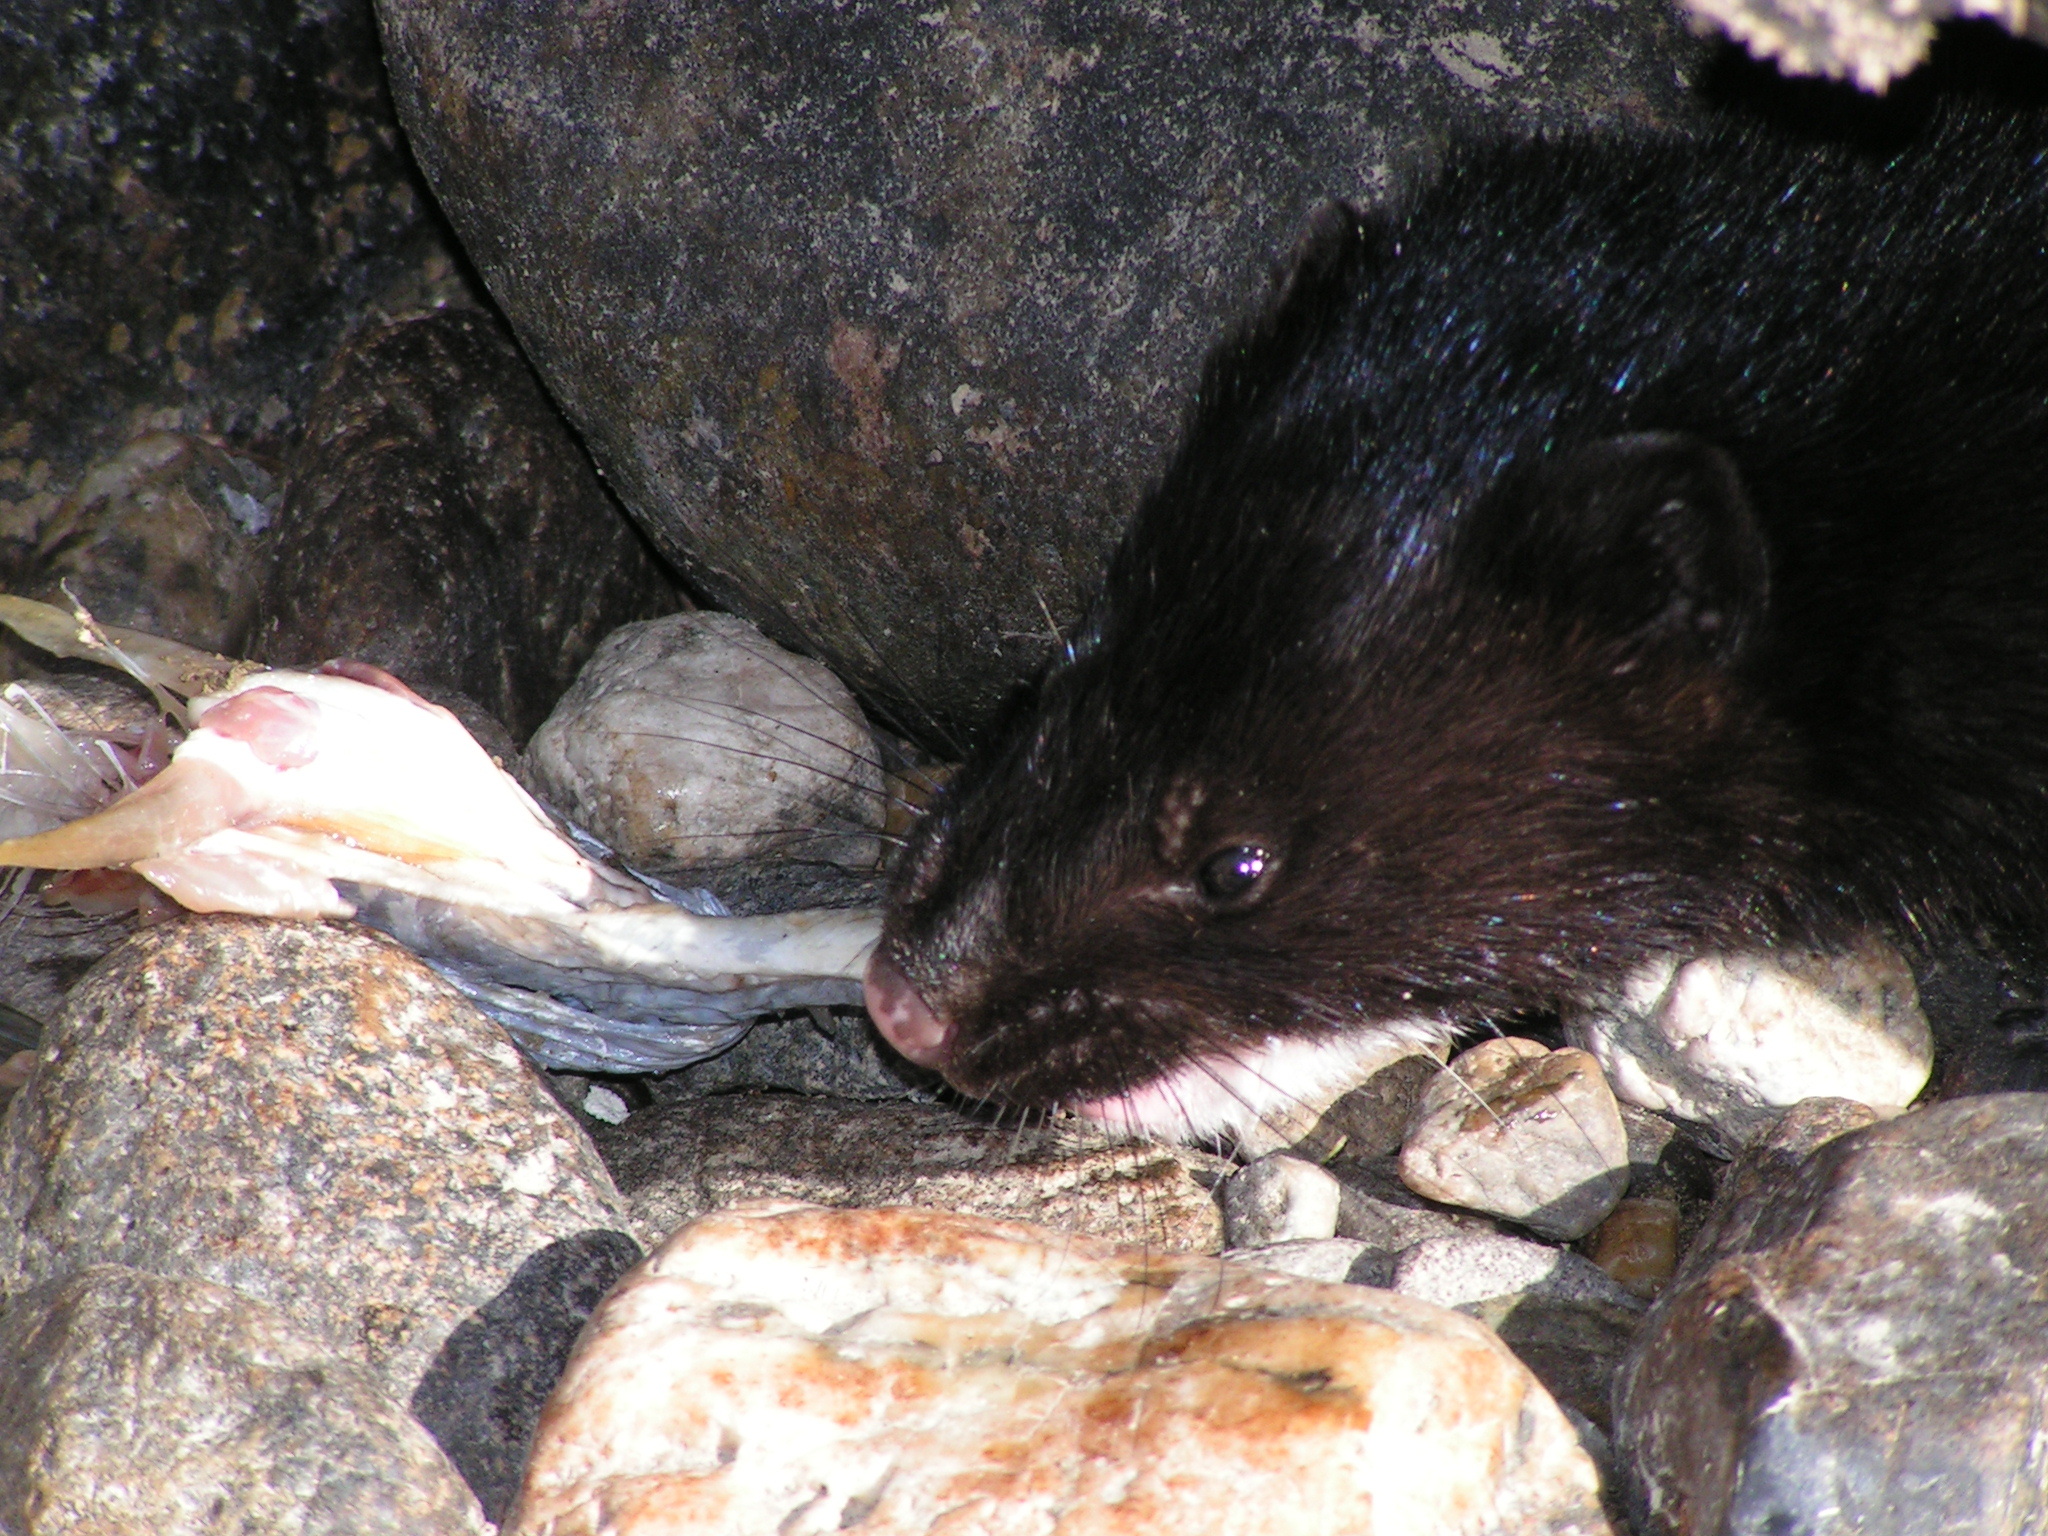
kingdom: Animalia
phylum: Chordata
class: Mammalia
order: Carnivora
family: Mustelidae
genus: Mustela
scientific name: Mustela
